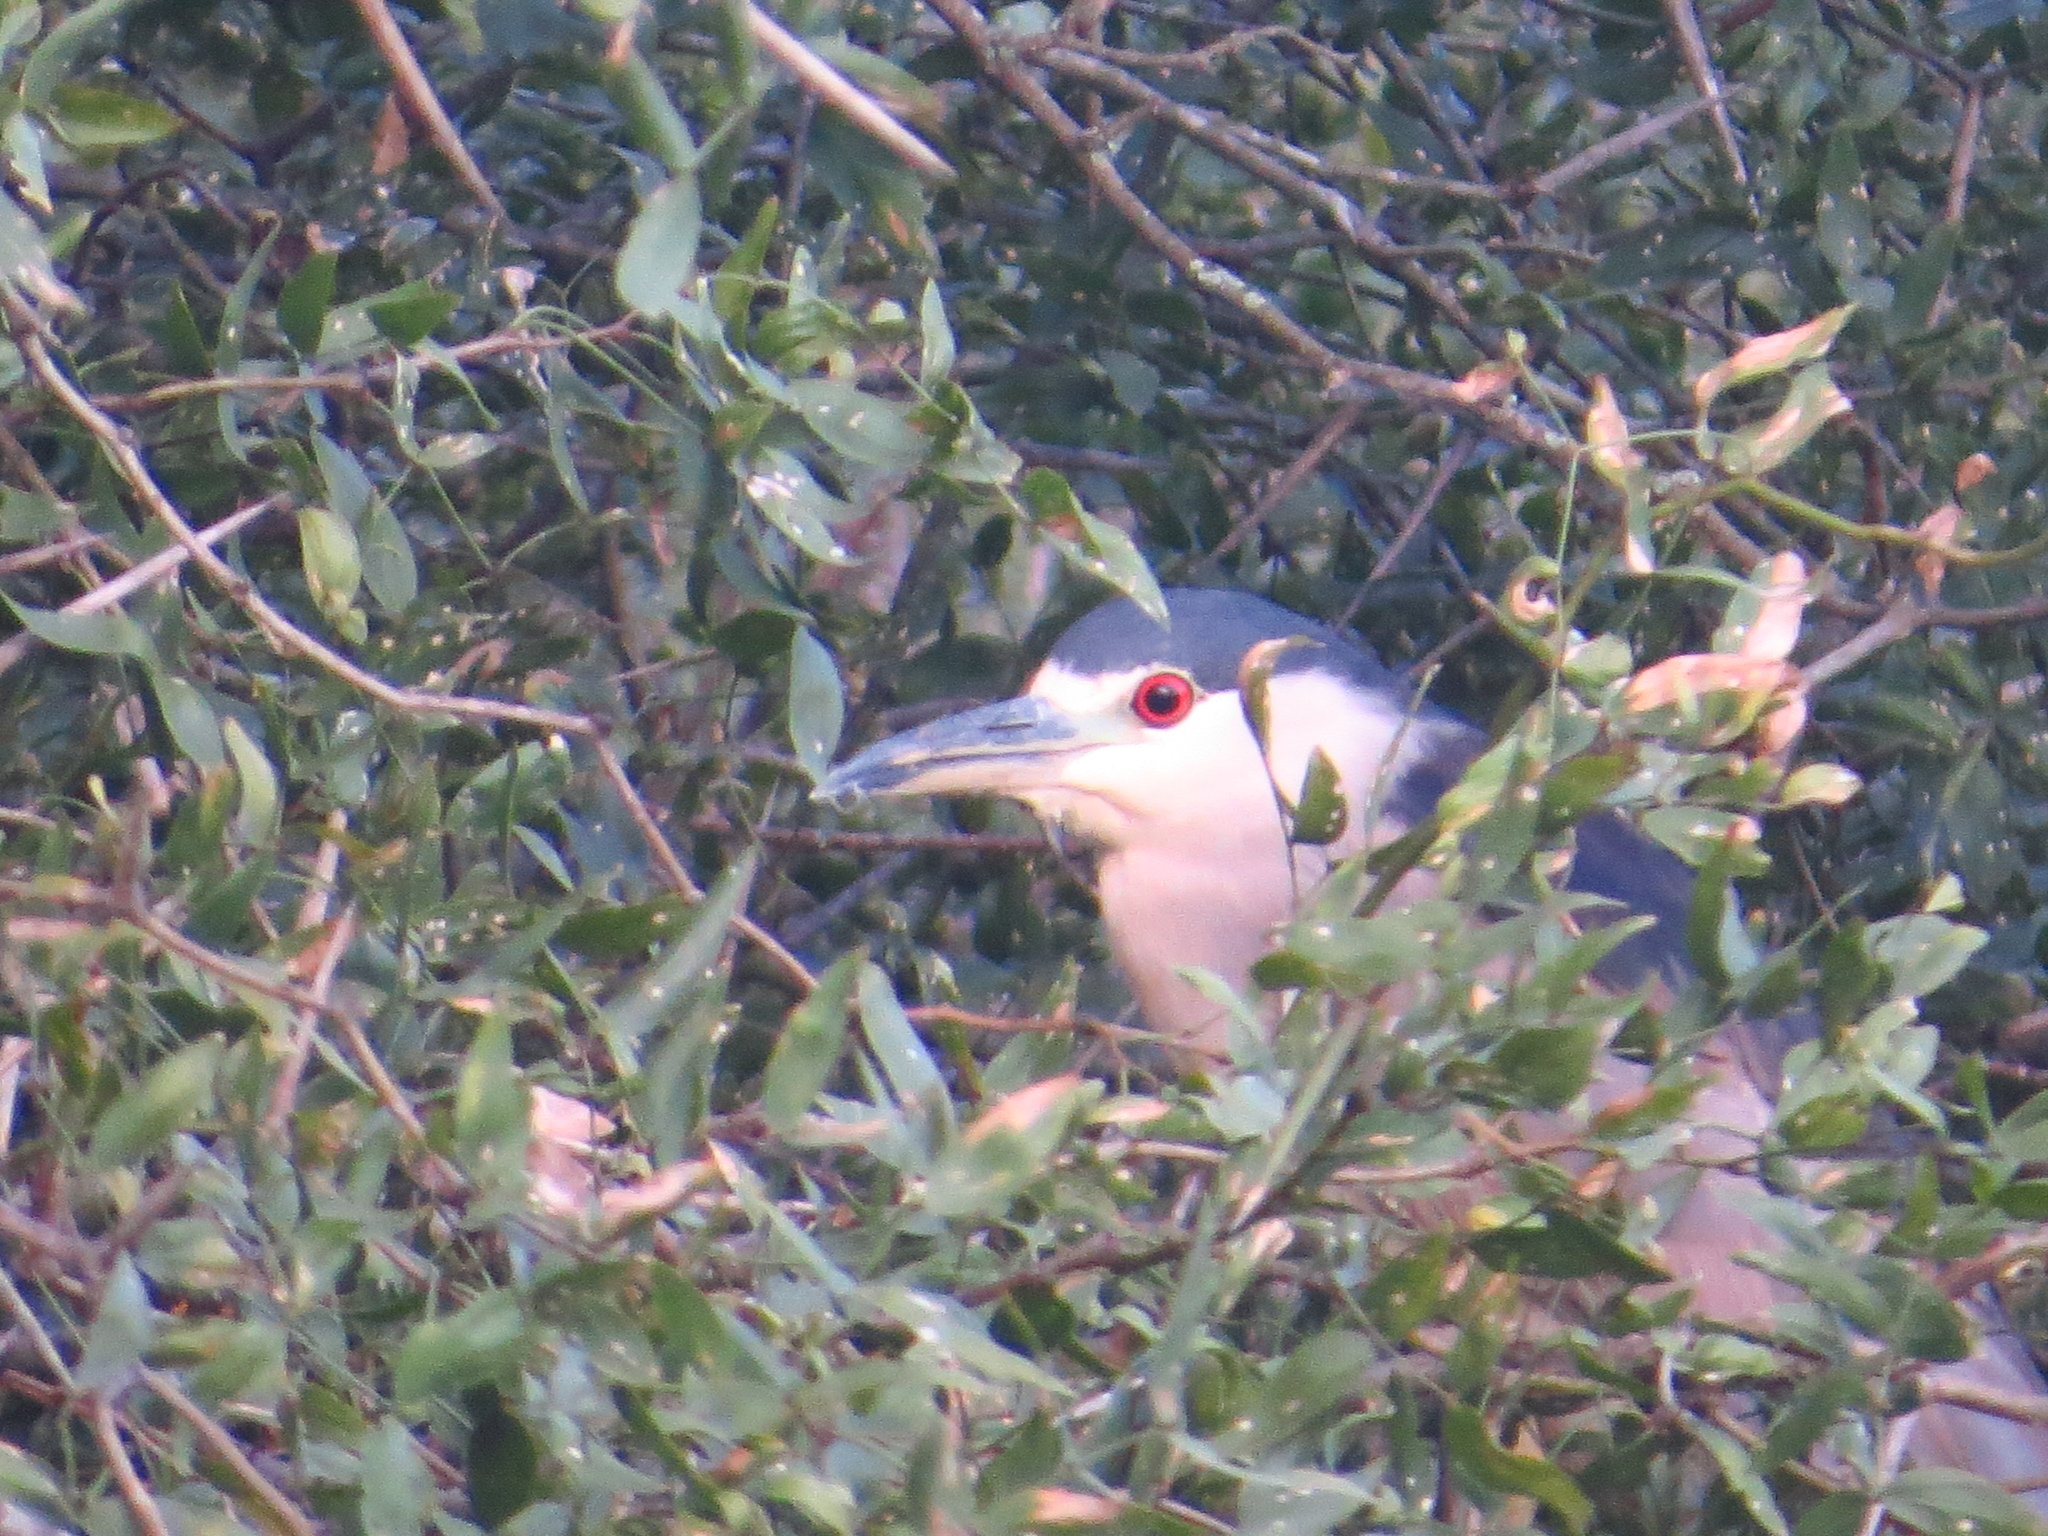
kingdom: Animalia
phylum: Chordata
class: Aves
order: Pelecaniformes
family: Ardeidae
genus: Nycticorax
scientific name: Nycticorax nycticorax
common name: Black-crowned night heron
